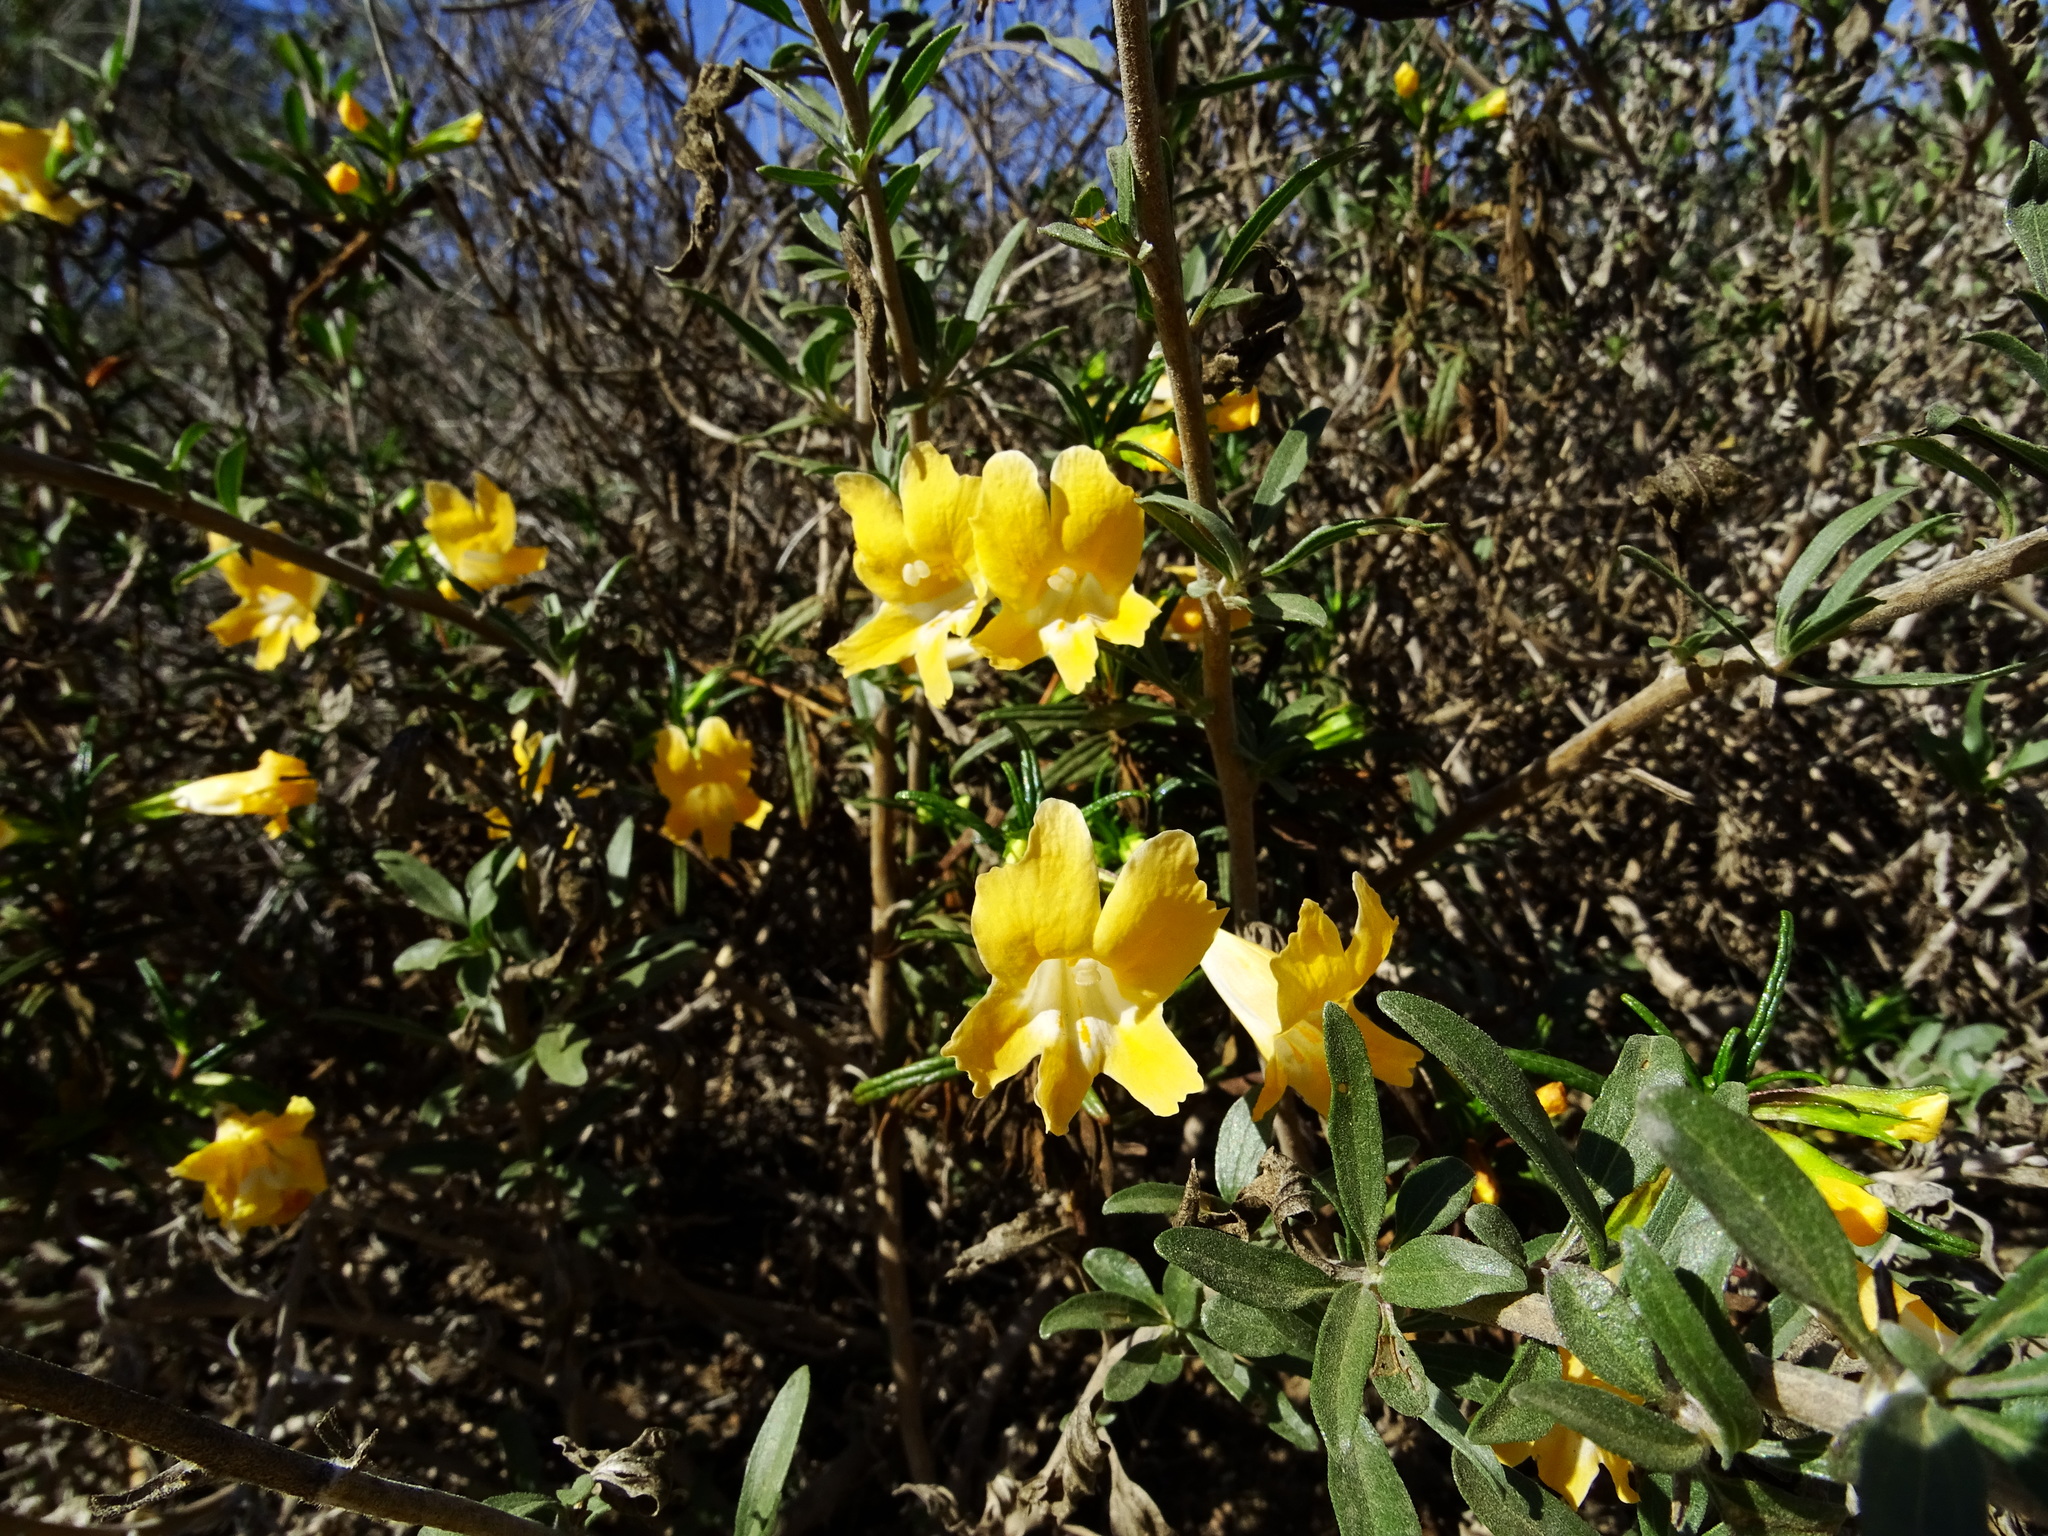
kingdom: Plantae
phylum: Tracheophyta
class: Magnoliopsida
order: Lamiales
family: Phrymaceae
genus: Diplacus
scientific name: Diplacus australis
